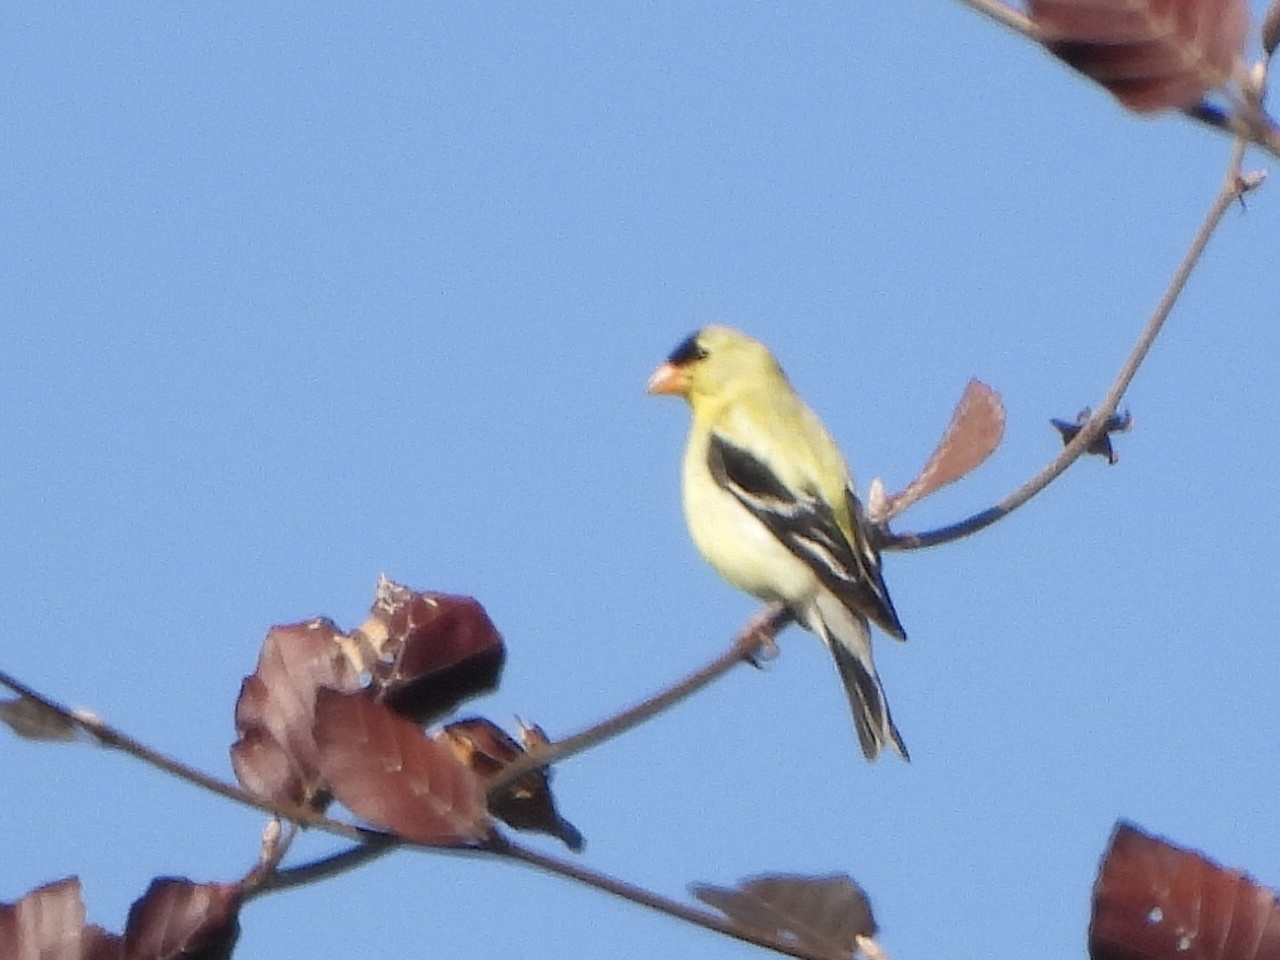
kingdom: Animalia
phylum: Chordata
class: Aves
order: Passeriformes
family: Fringillidae
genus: Spinus
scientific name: Spinus tristis
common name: American goldfinch
